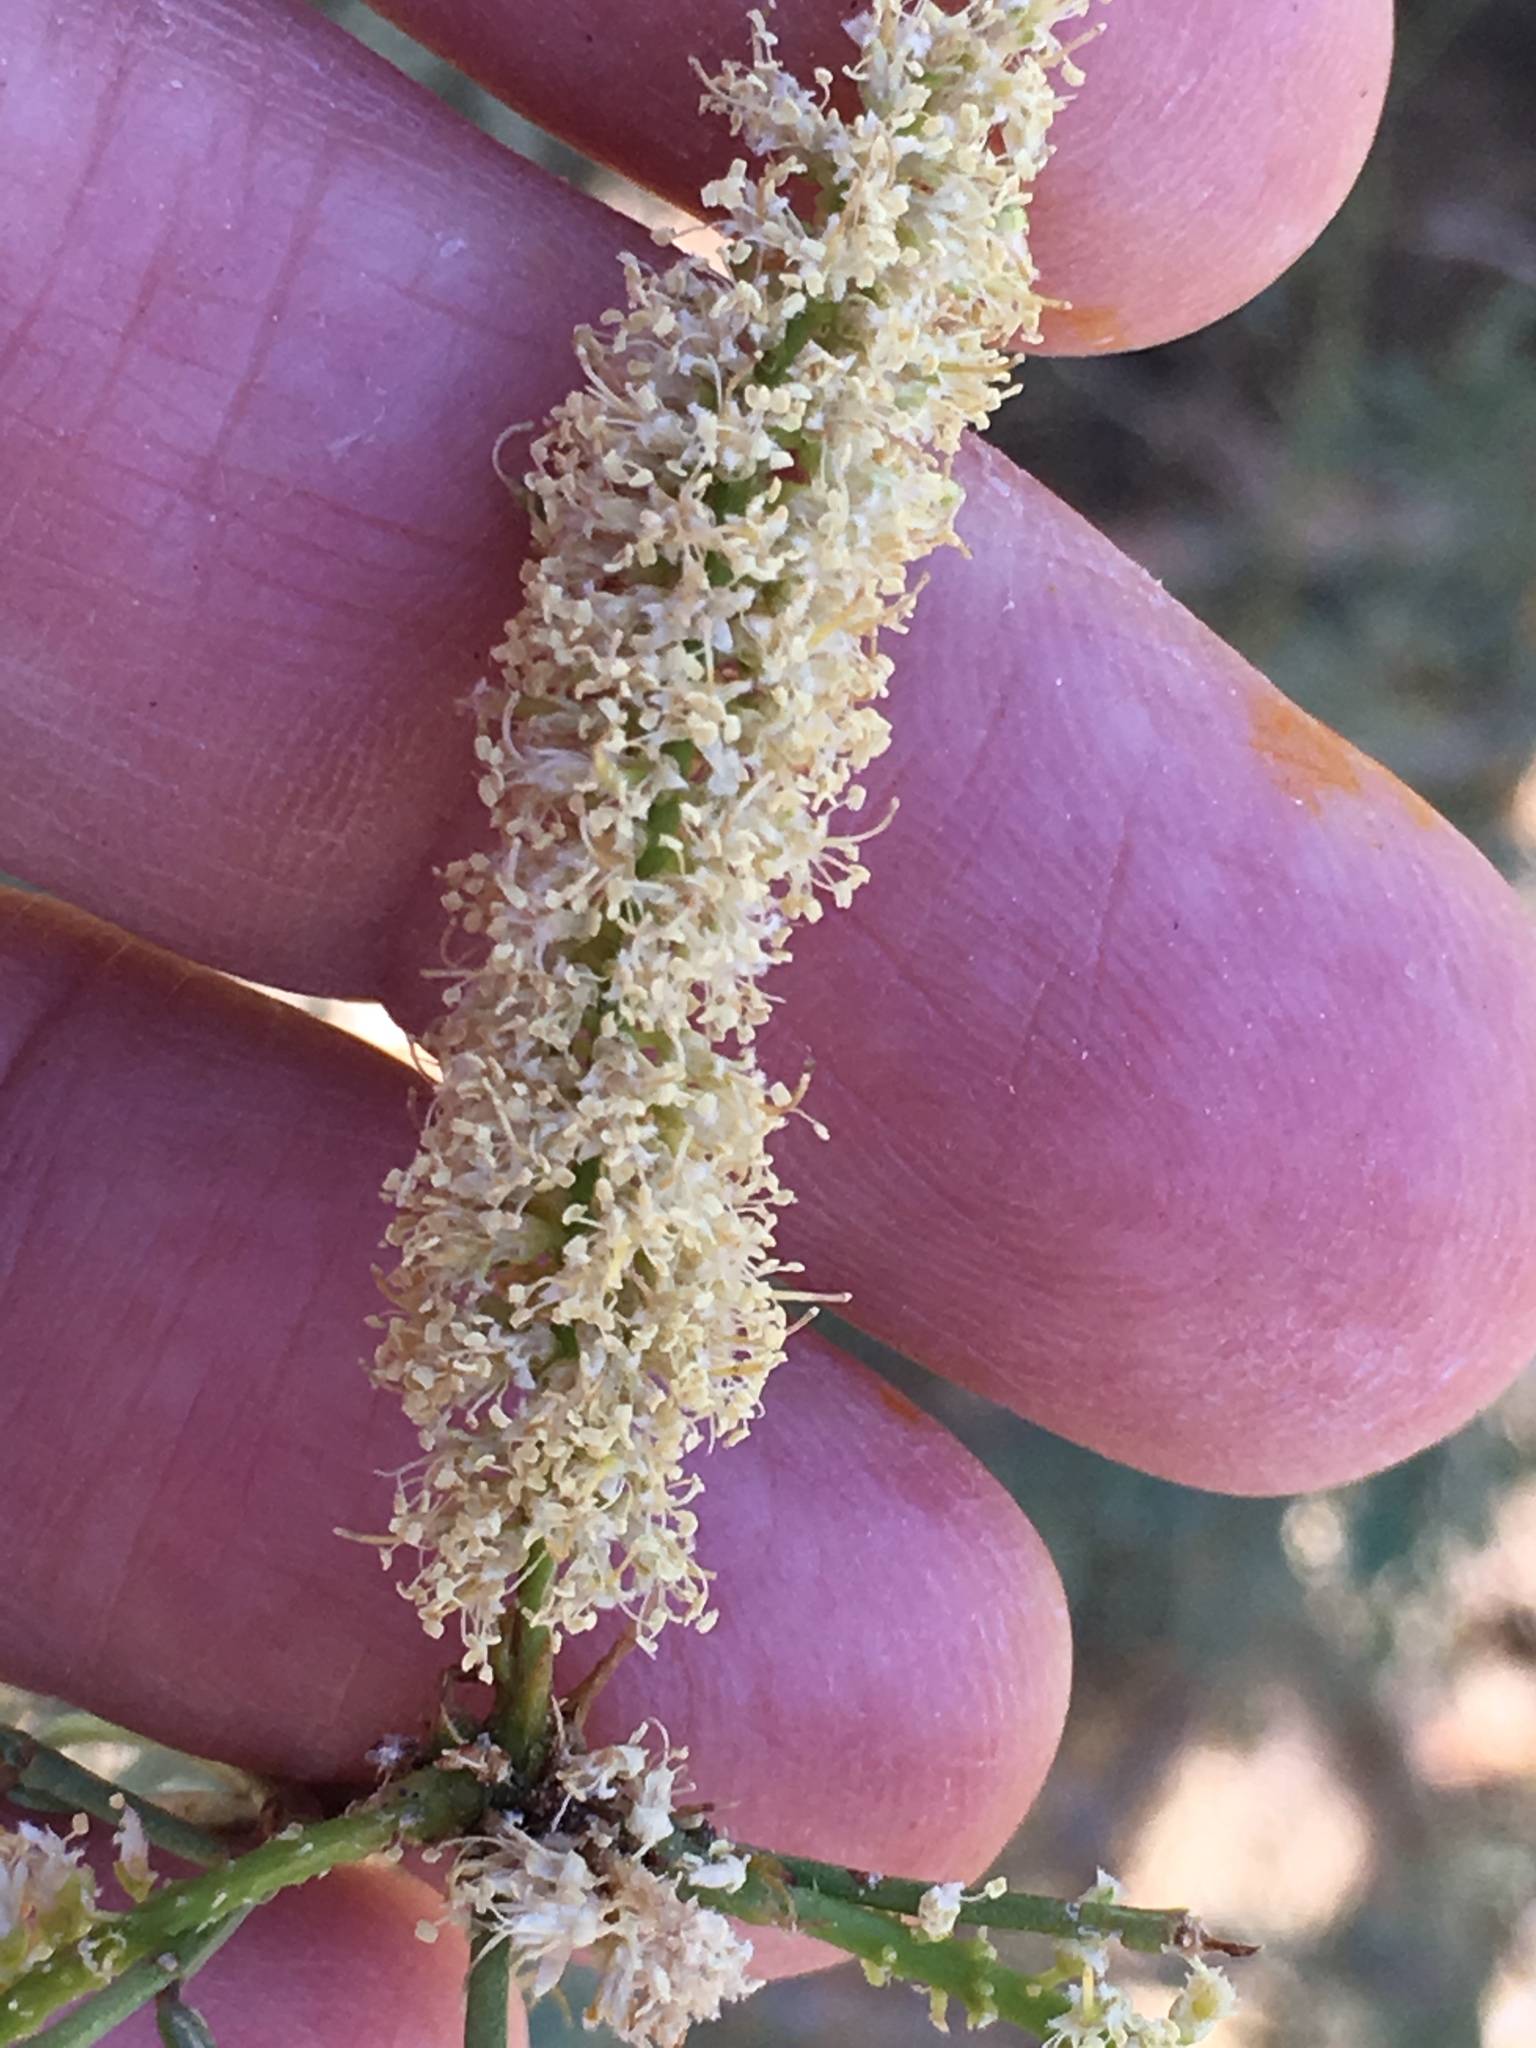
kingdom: Plantae
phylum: Tracheophyta
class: Magnoliopsida
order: Fabales
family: Fabaceae
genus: Prosopis
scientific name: Prosopis pubescens
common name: Screw-bean
